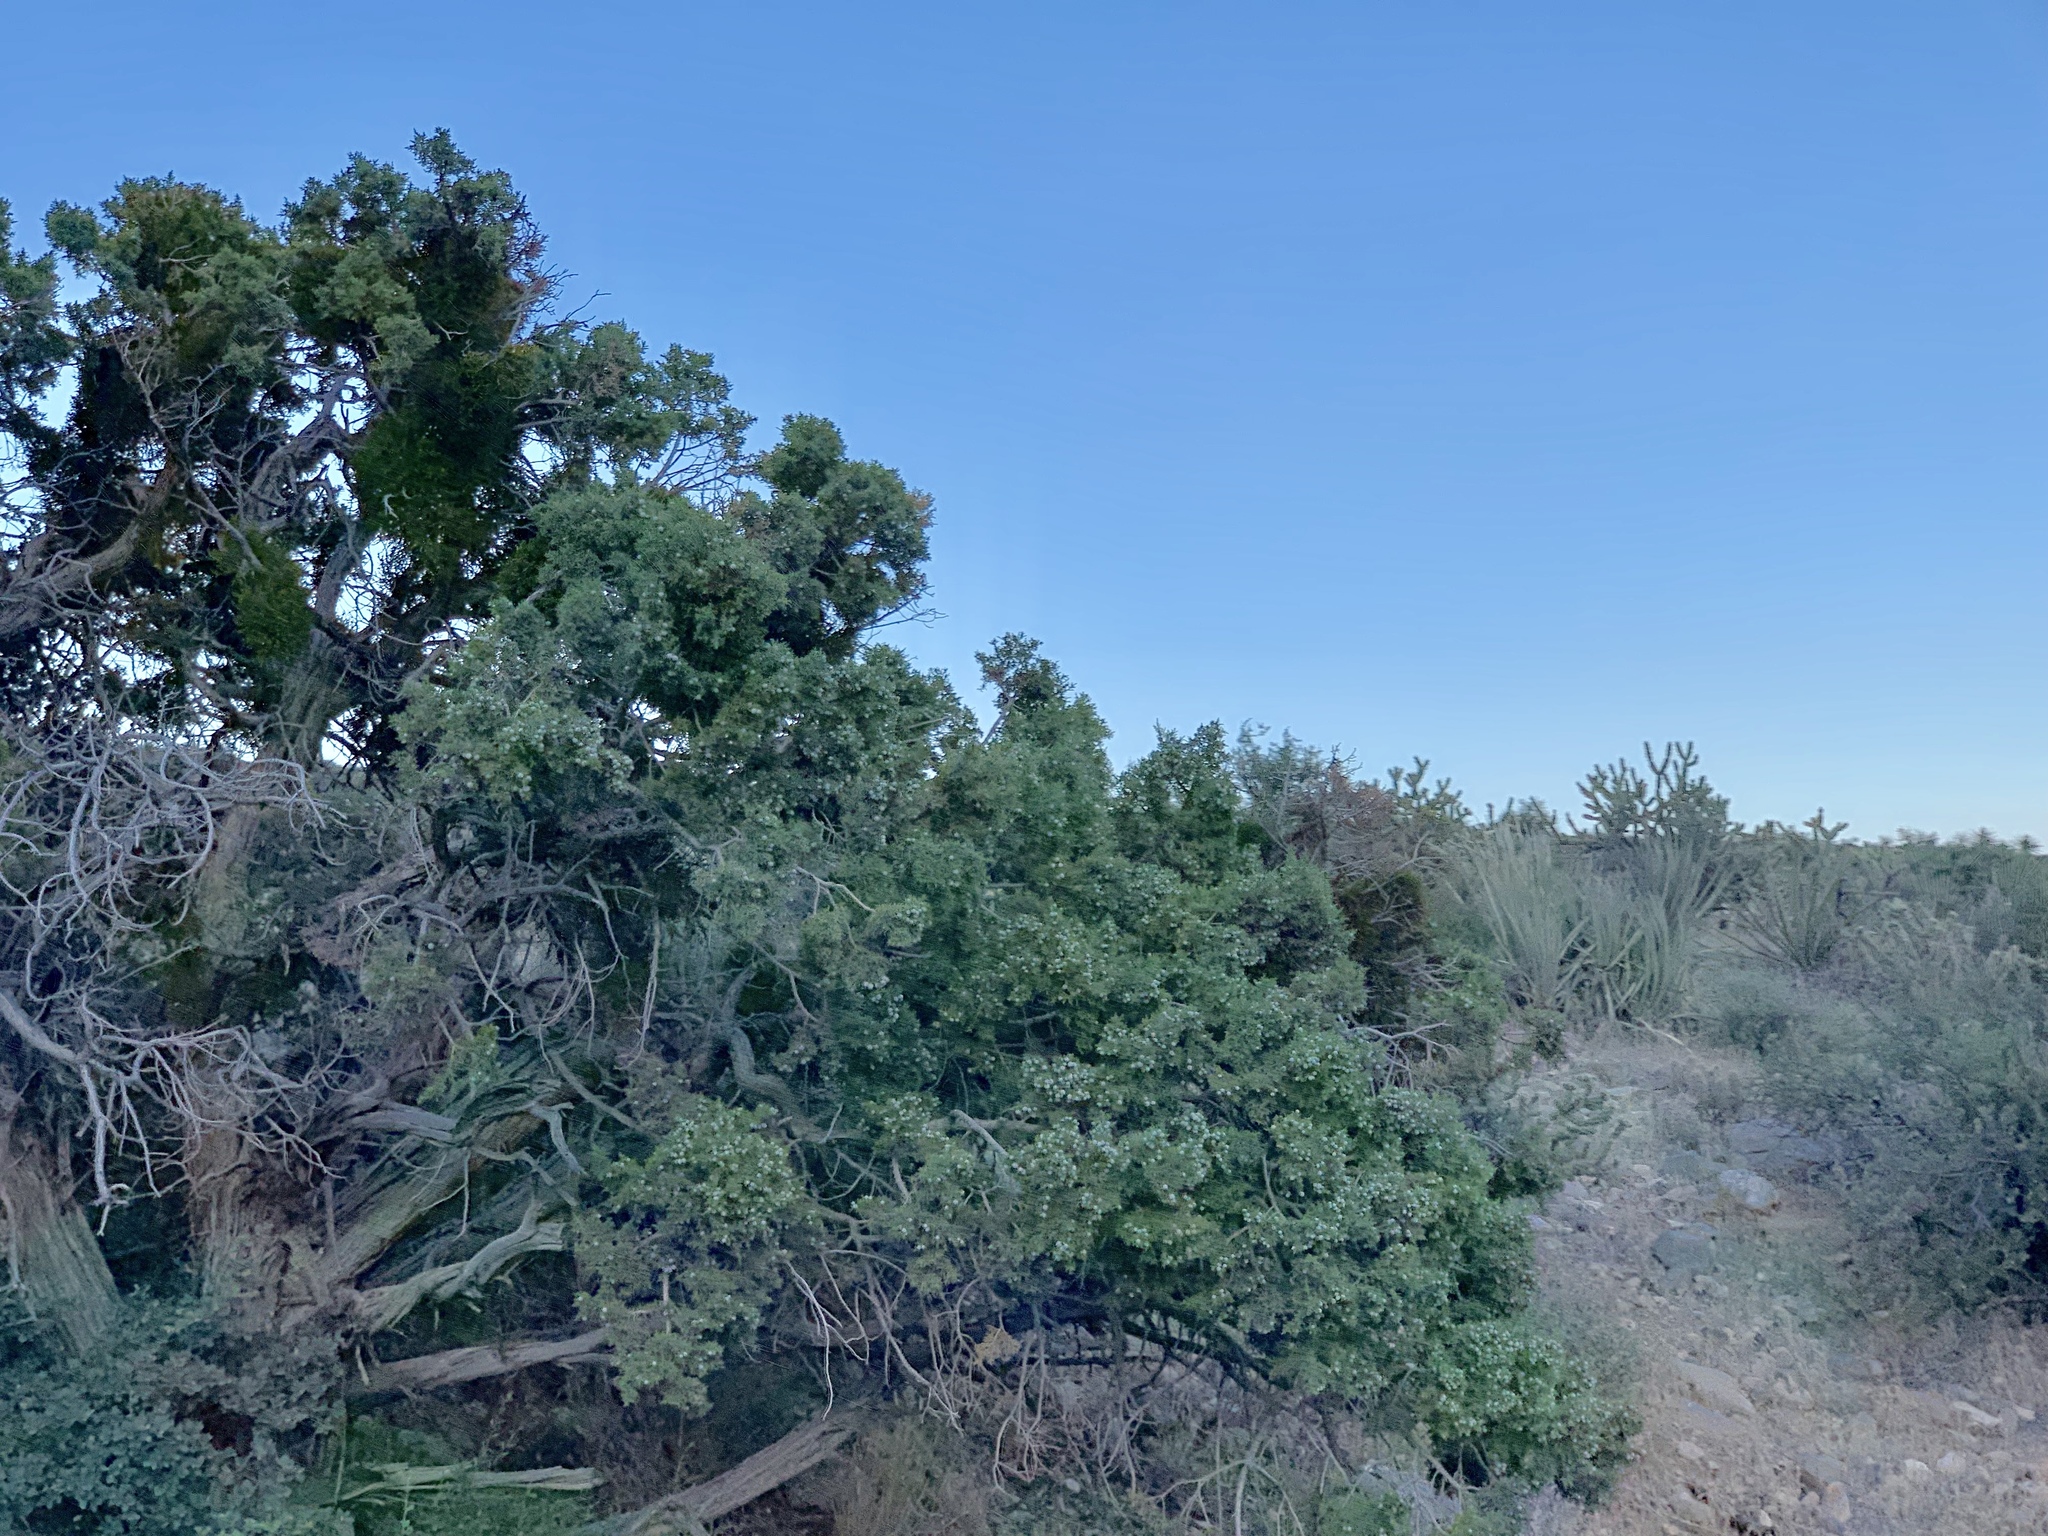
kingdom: Plantae
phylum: Tracheophyta
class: Pinopsida
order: Pinales
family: Cupressaceae
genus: Juniperus
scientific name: Juniperus osteosperma
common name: Utah juniper
